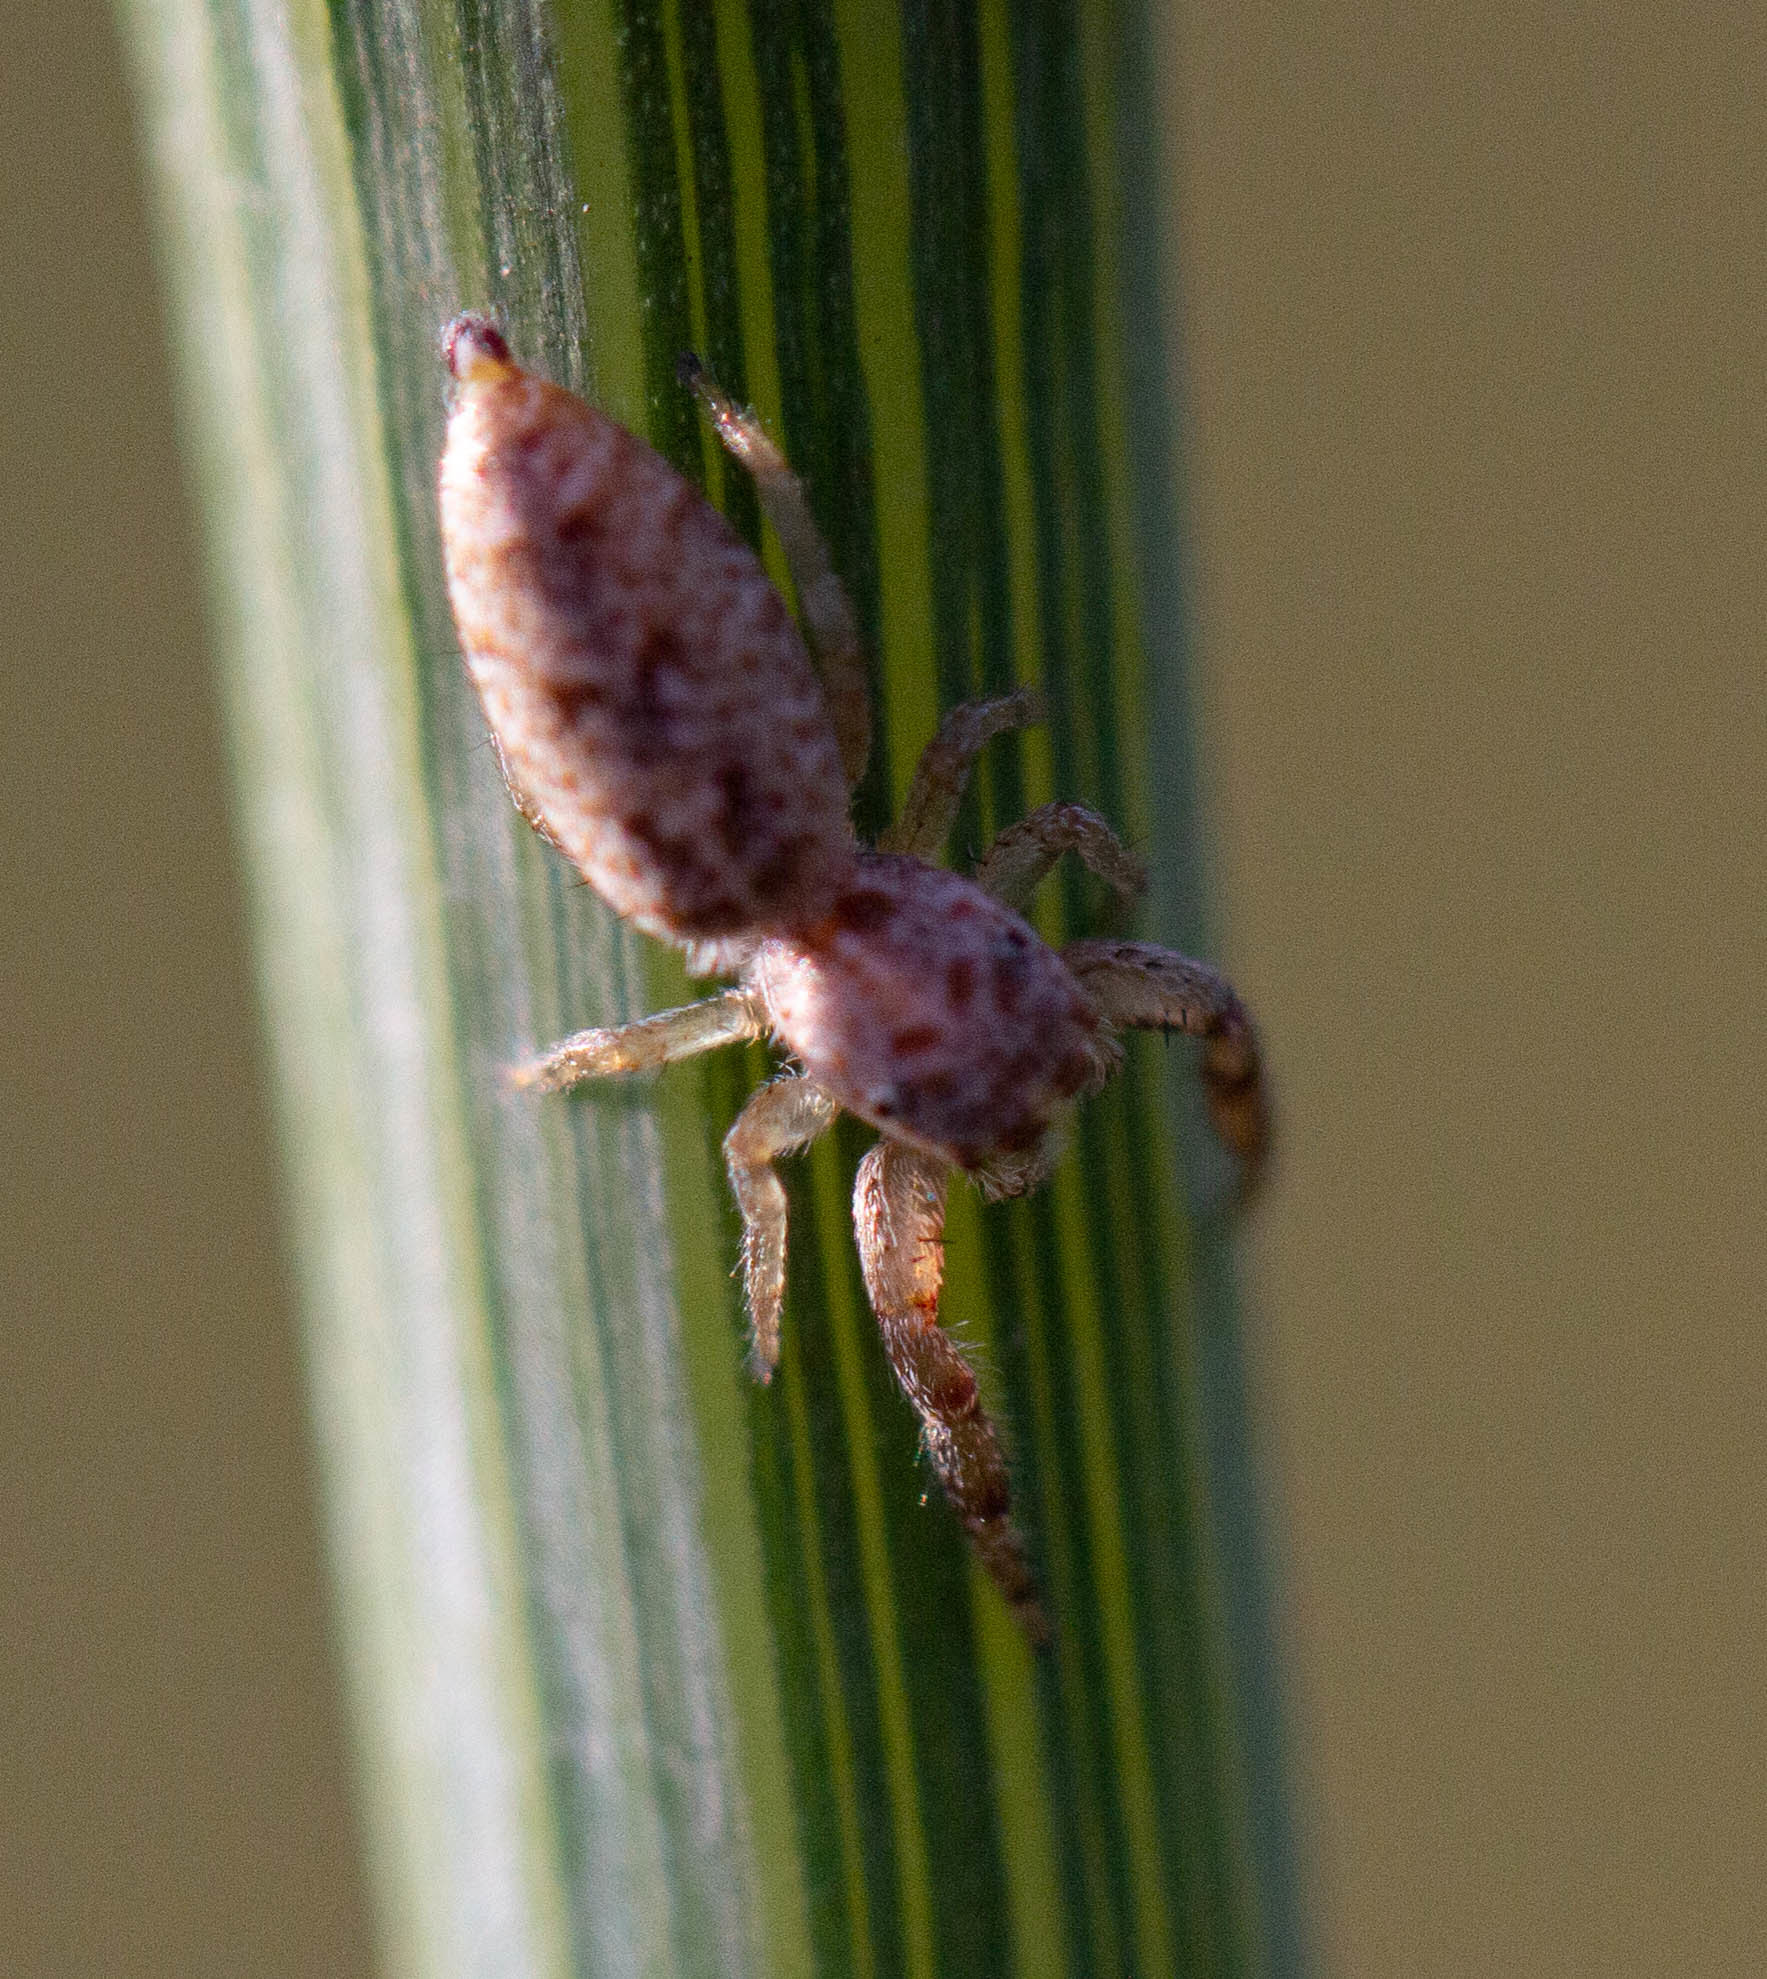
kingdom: Animalia
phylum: Arthropoda
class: Arachnida
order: Araneae
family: Salticidae
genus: Hentzia
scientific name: Hentzia palmarum
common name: Common hentz jumping spider
